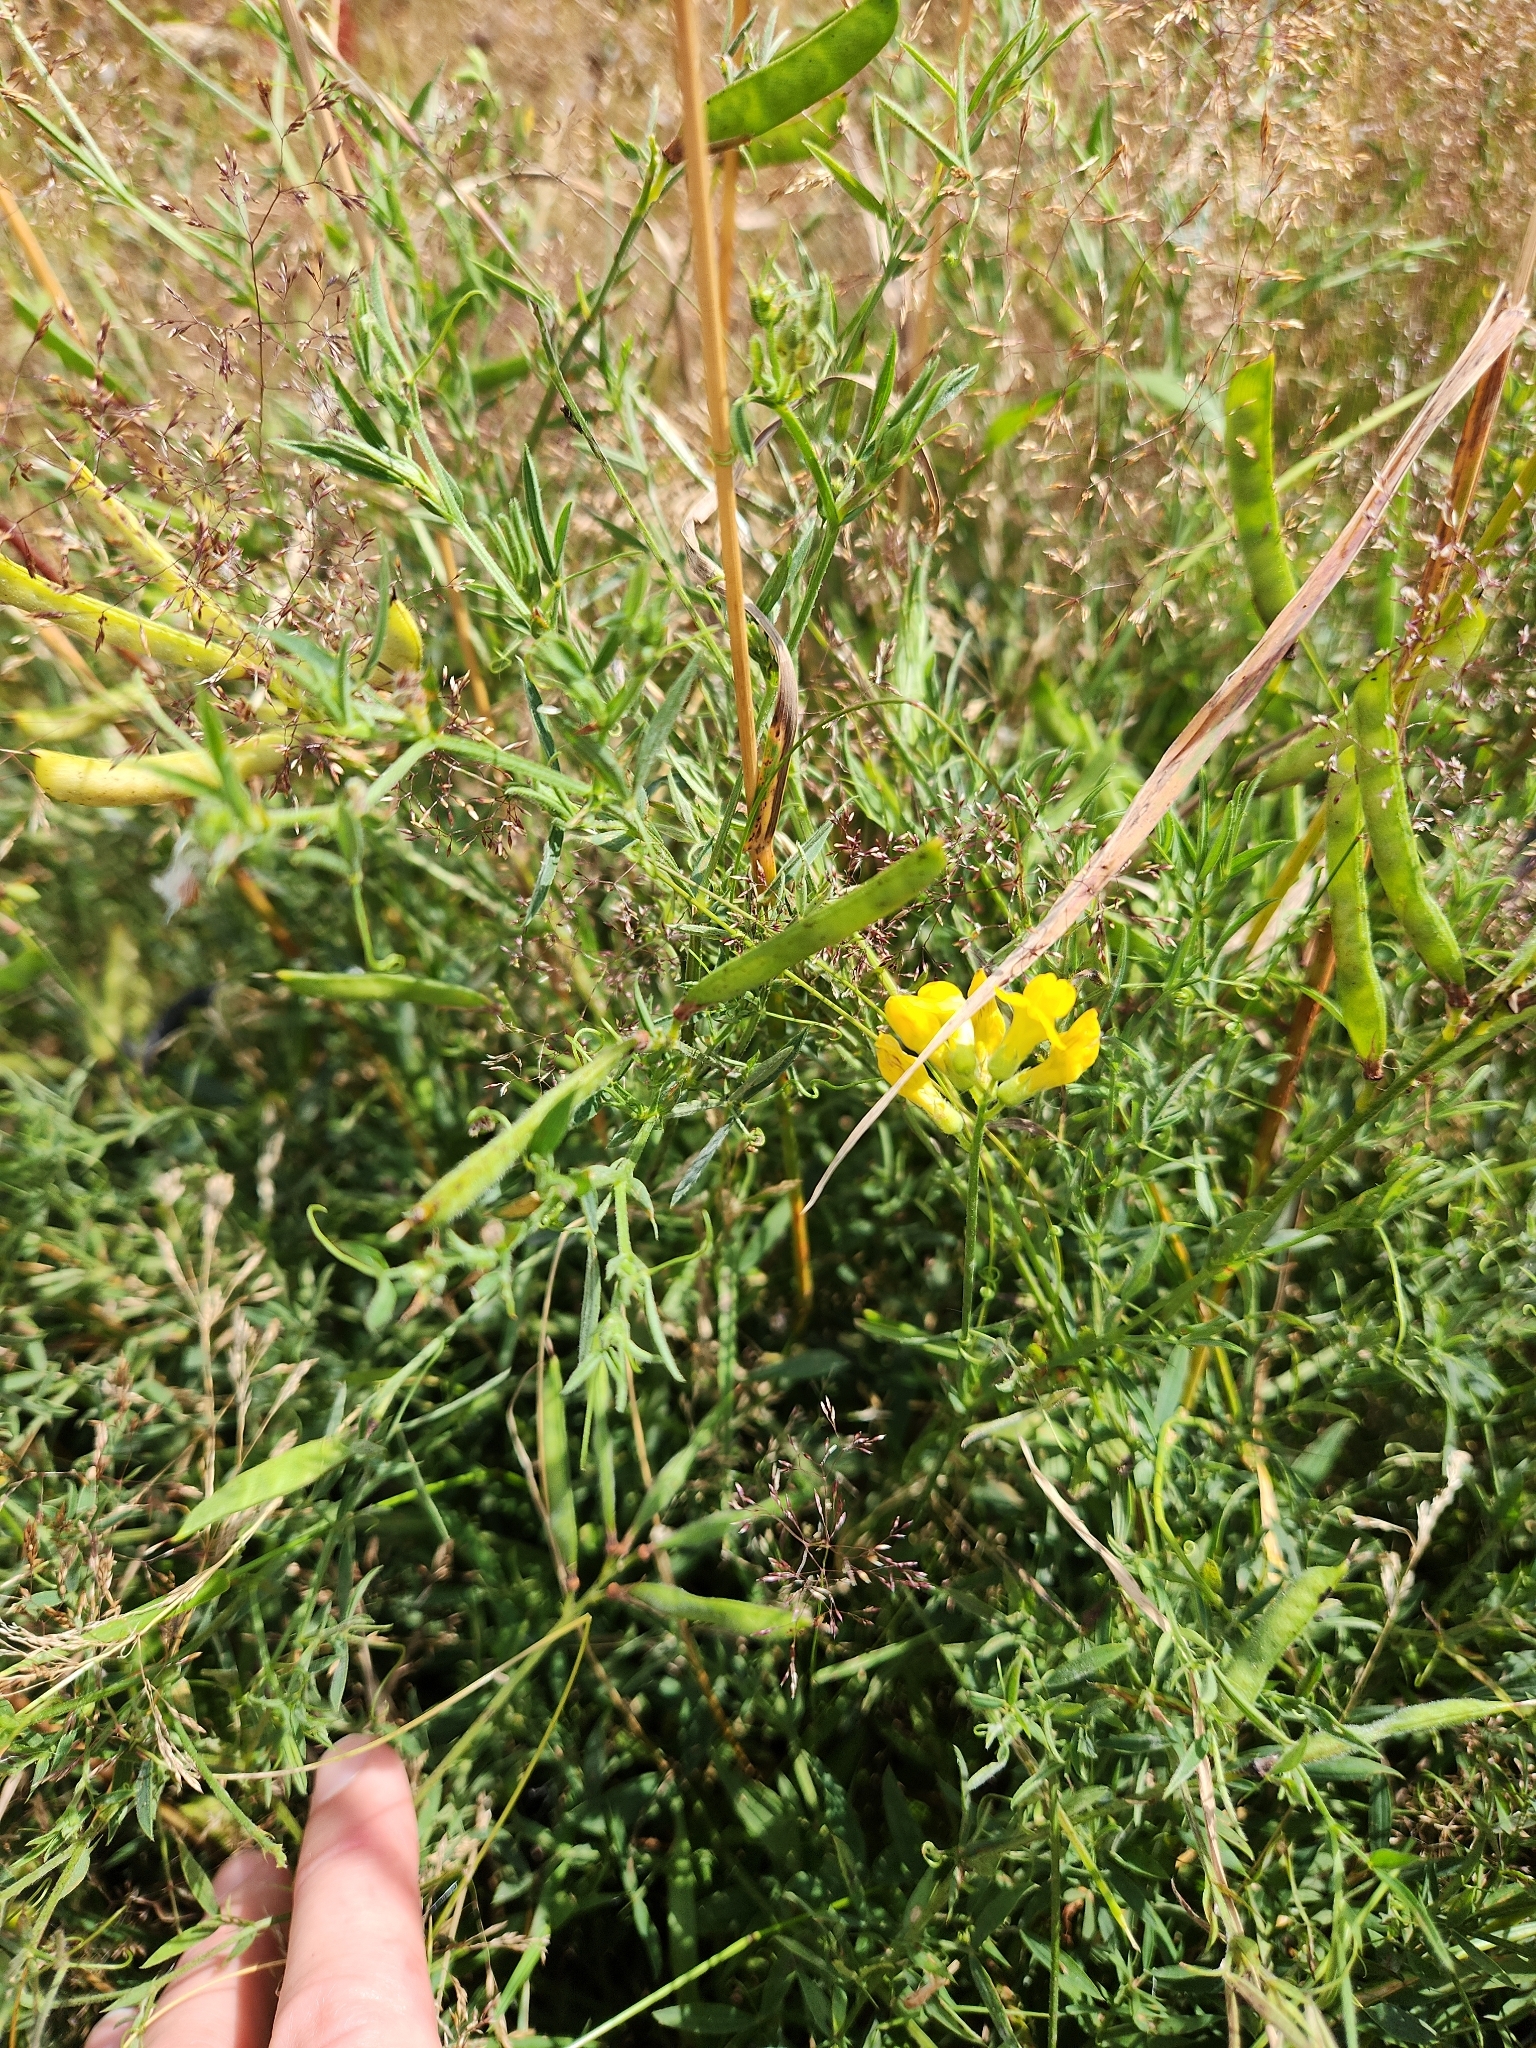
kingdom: Plantae
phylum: Tracheophyta
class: Magnoliopsida
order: Fabales
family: Fabaceae
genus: Lathyrus
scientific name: Lathyrus pratensis
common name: Meadow vetchling
